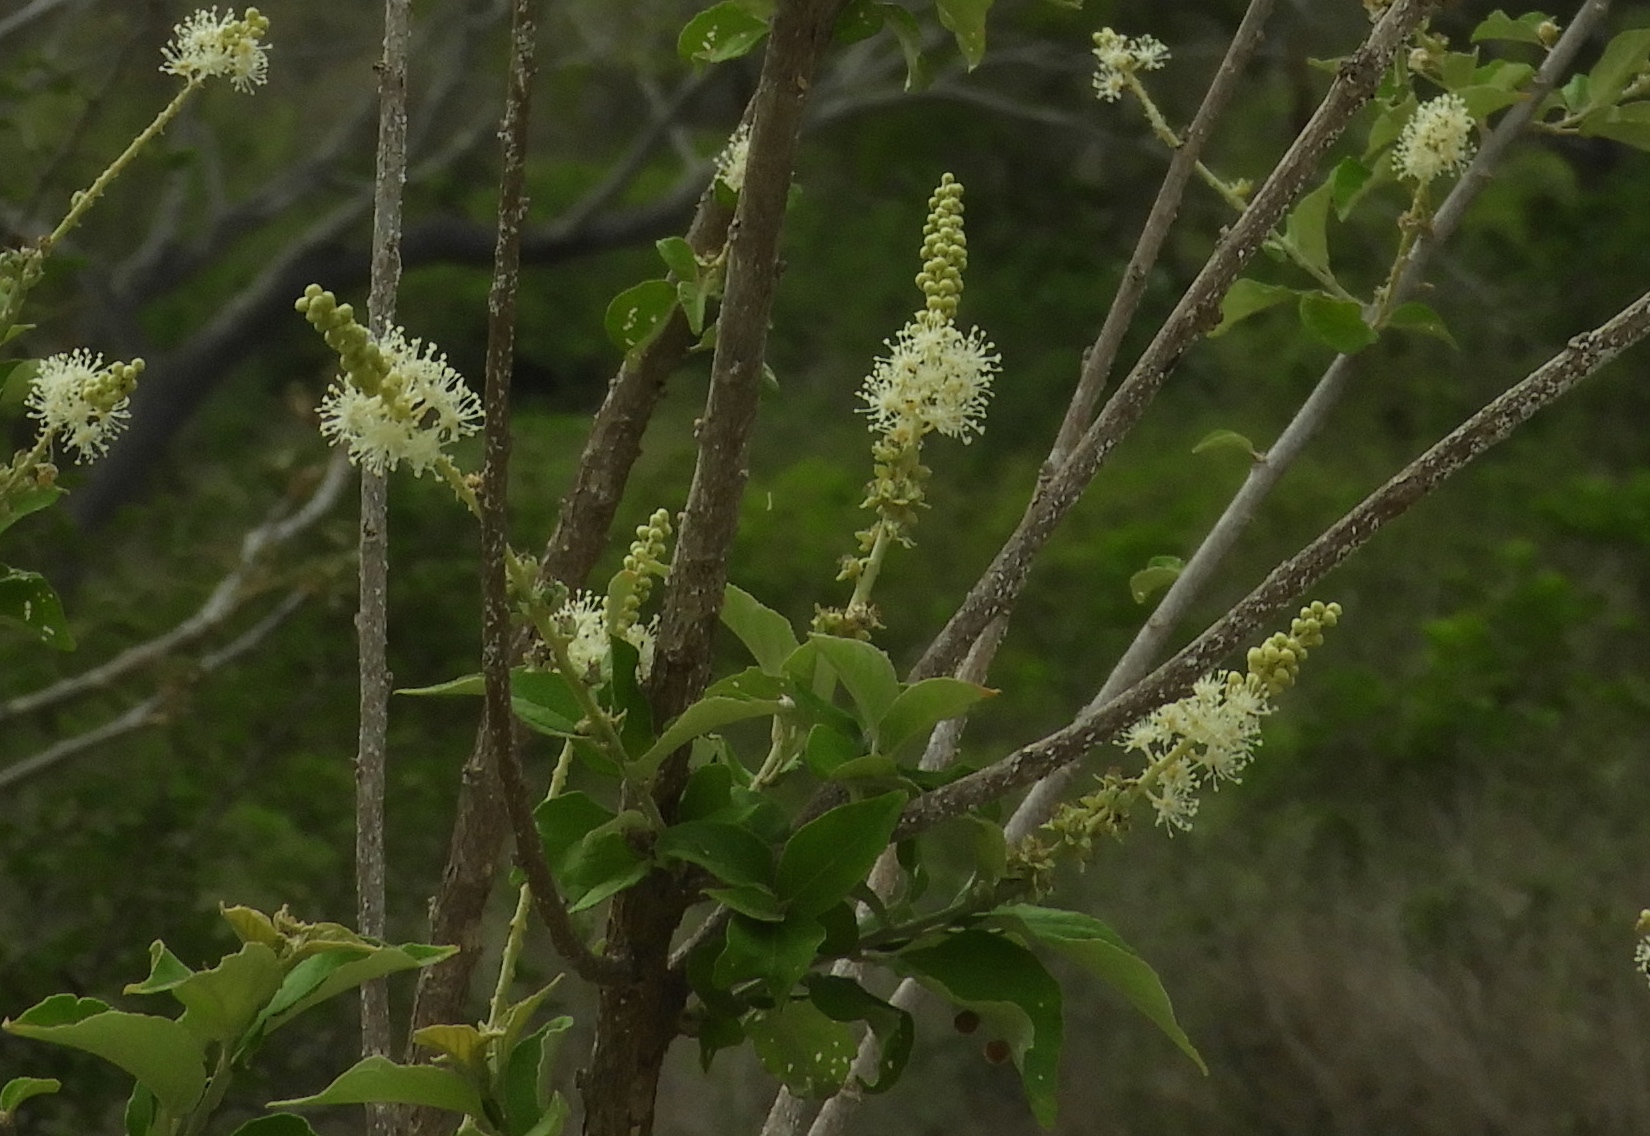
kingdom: Plantae
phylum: Tracheophyta
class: Magnoliopsida
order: Malpighiales
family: Euphorbiaceae
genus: Croton
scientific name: Croton culiacanensis
